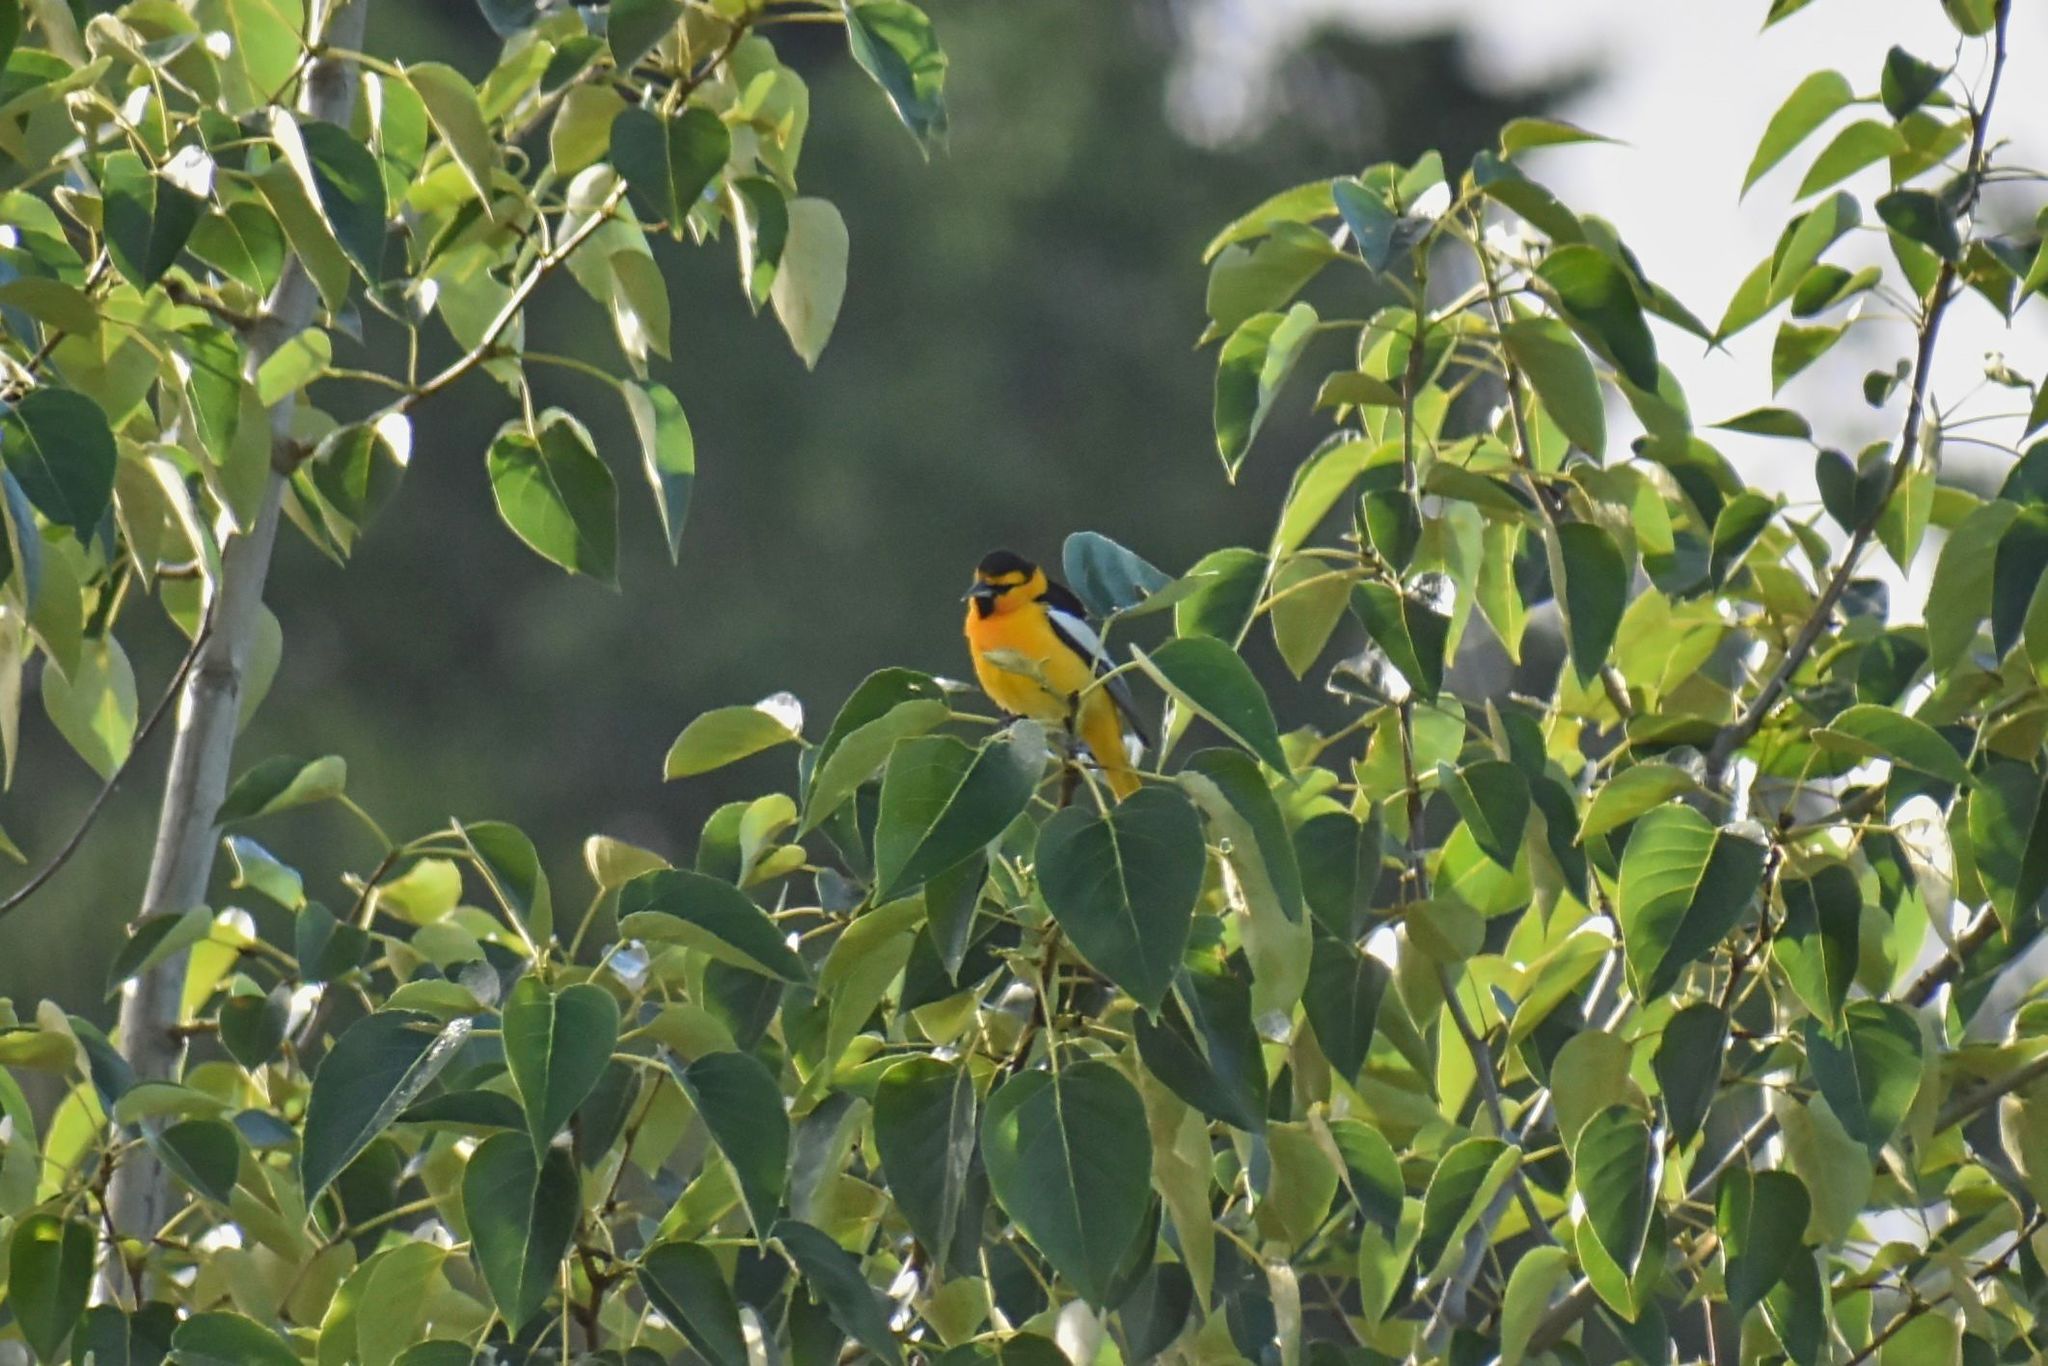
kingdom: Animalia
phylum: Chordata
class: Aves
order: Passeriformes
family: Icteridae
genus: Icterus
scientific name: Icterus bullockii
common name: Bullock's oriole
